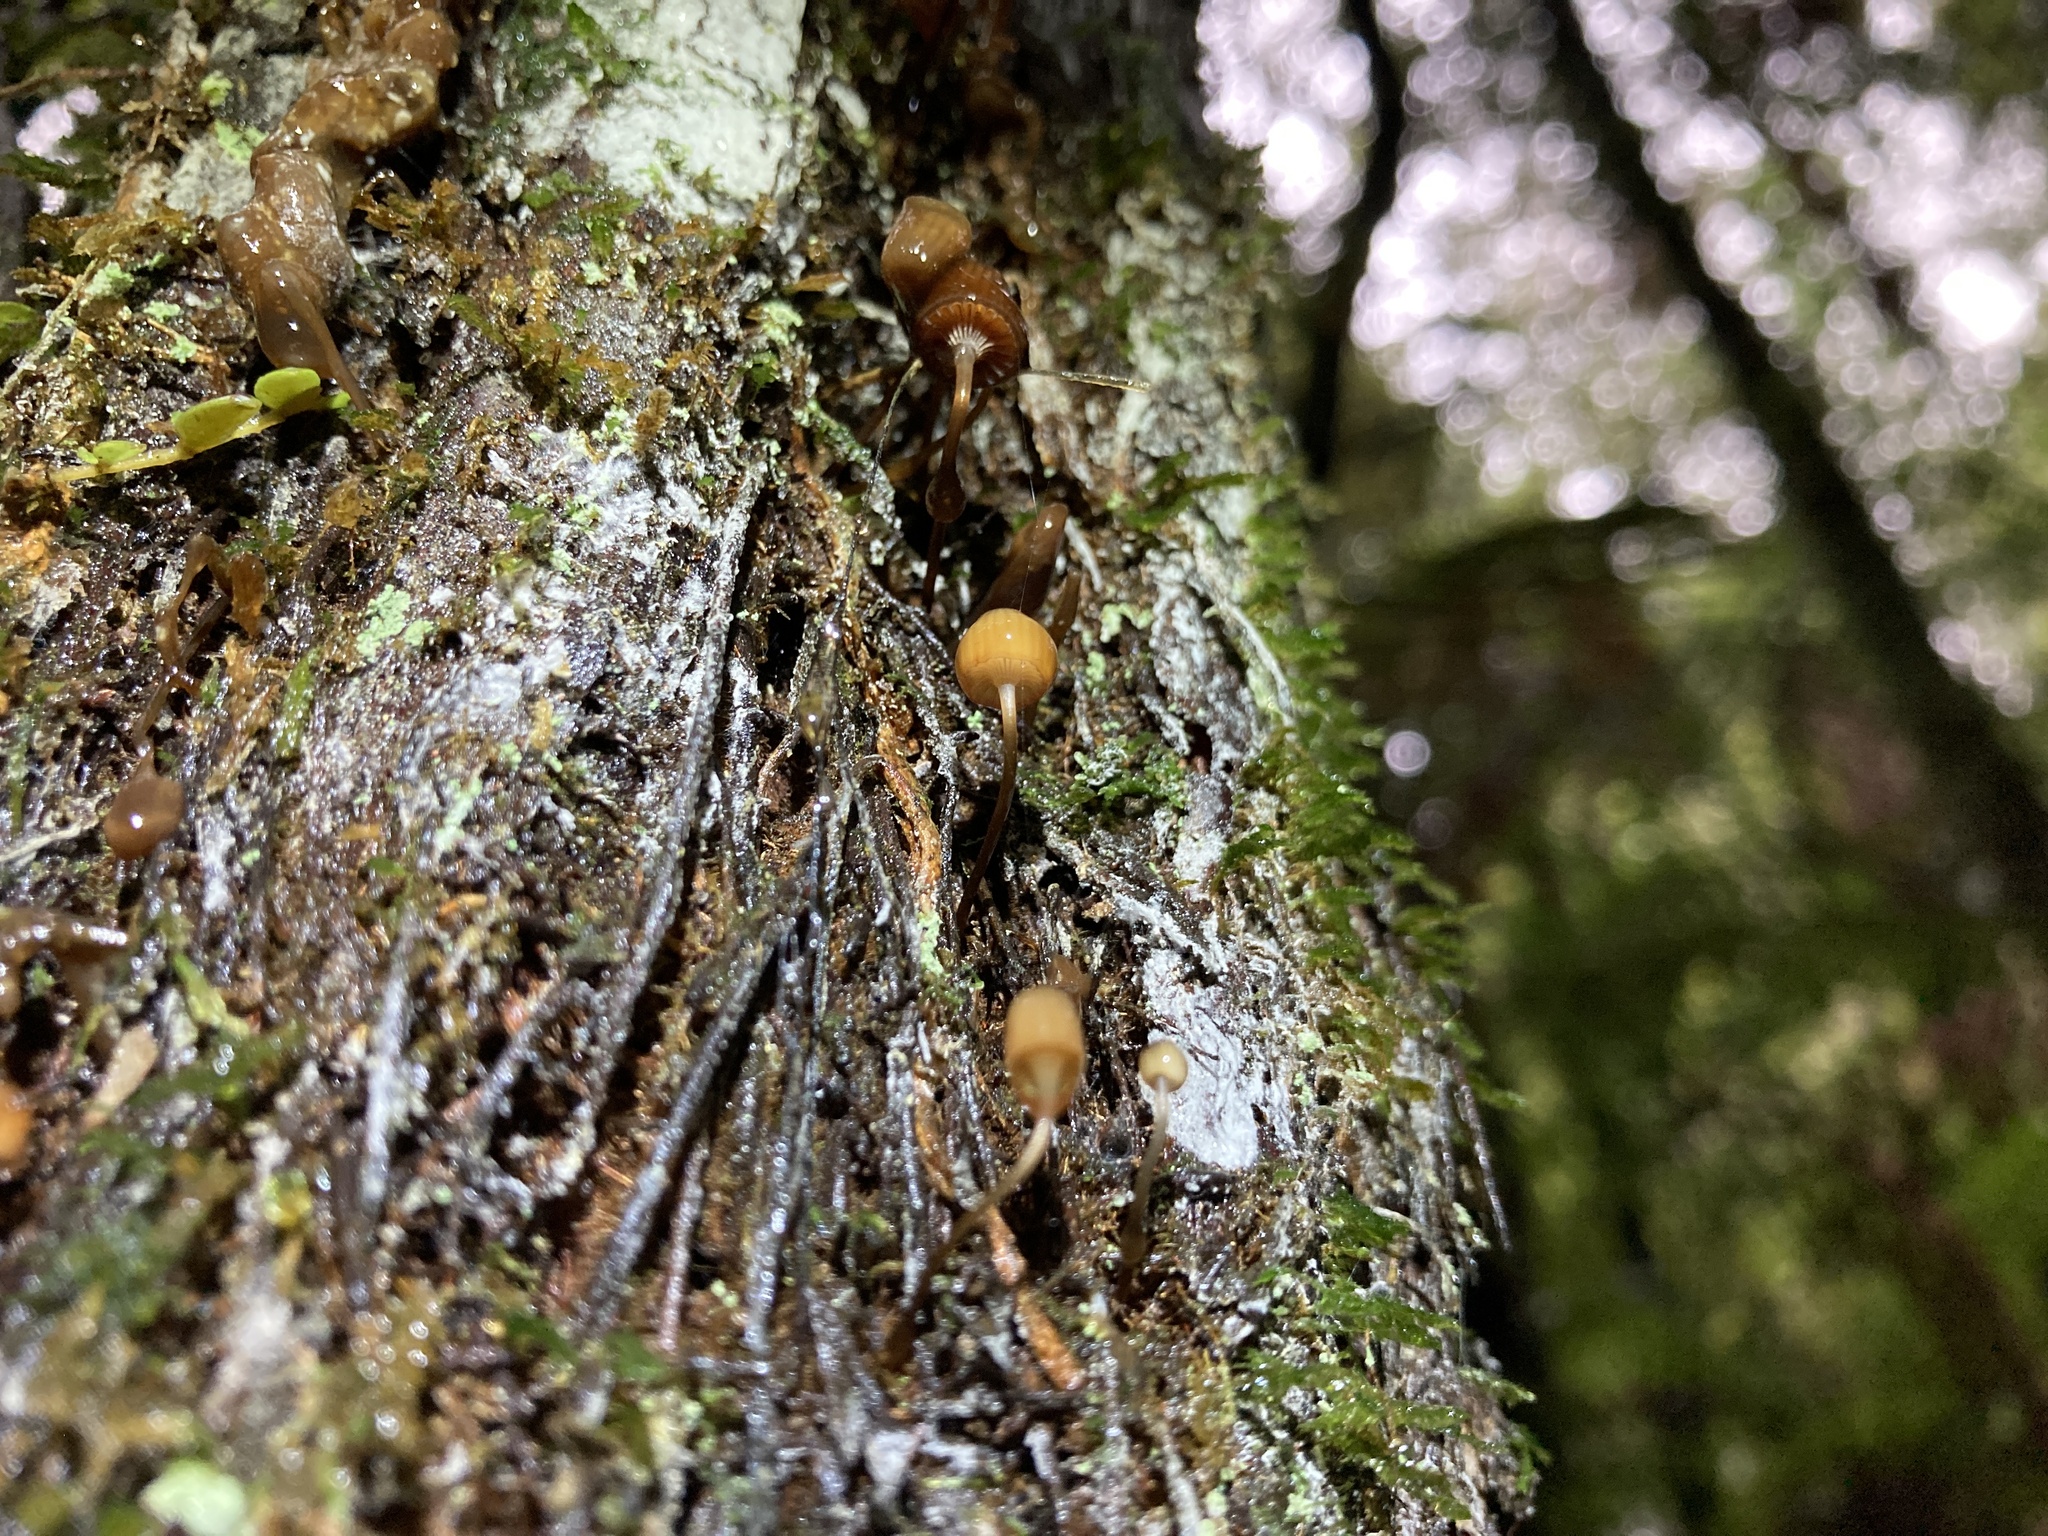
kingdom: Fungi
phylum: Basidiomycota
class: Agaricomycetes
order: Agaricales
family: Mycenaceae
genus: Mycena
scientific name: Mycena mamaku
